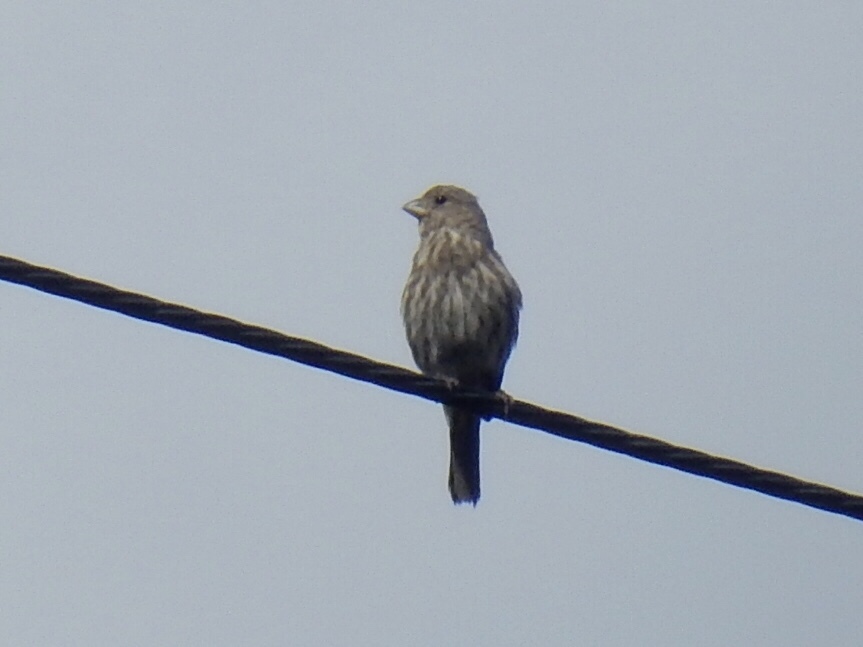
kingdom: Animalia
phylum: Chordata
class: Aves
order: Passeriformes
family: Fringillidae
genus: Haemorhous
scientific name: Haemorhous mexicanus
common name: House finch
